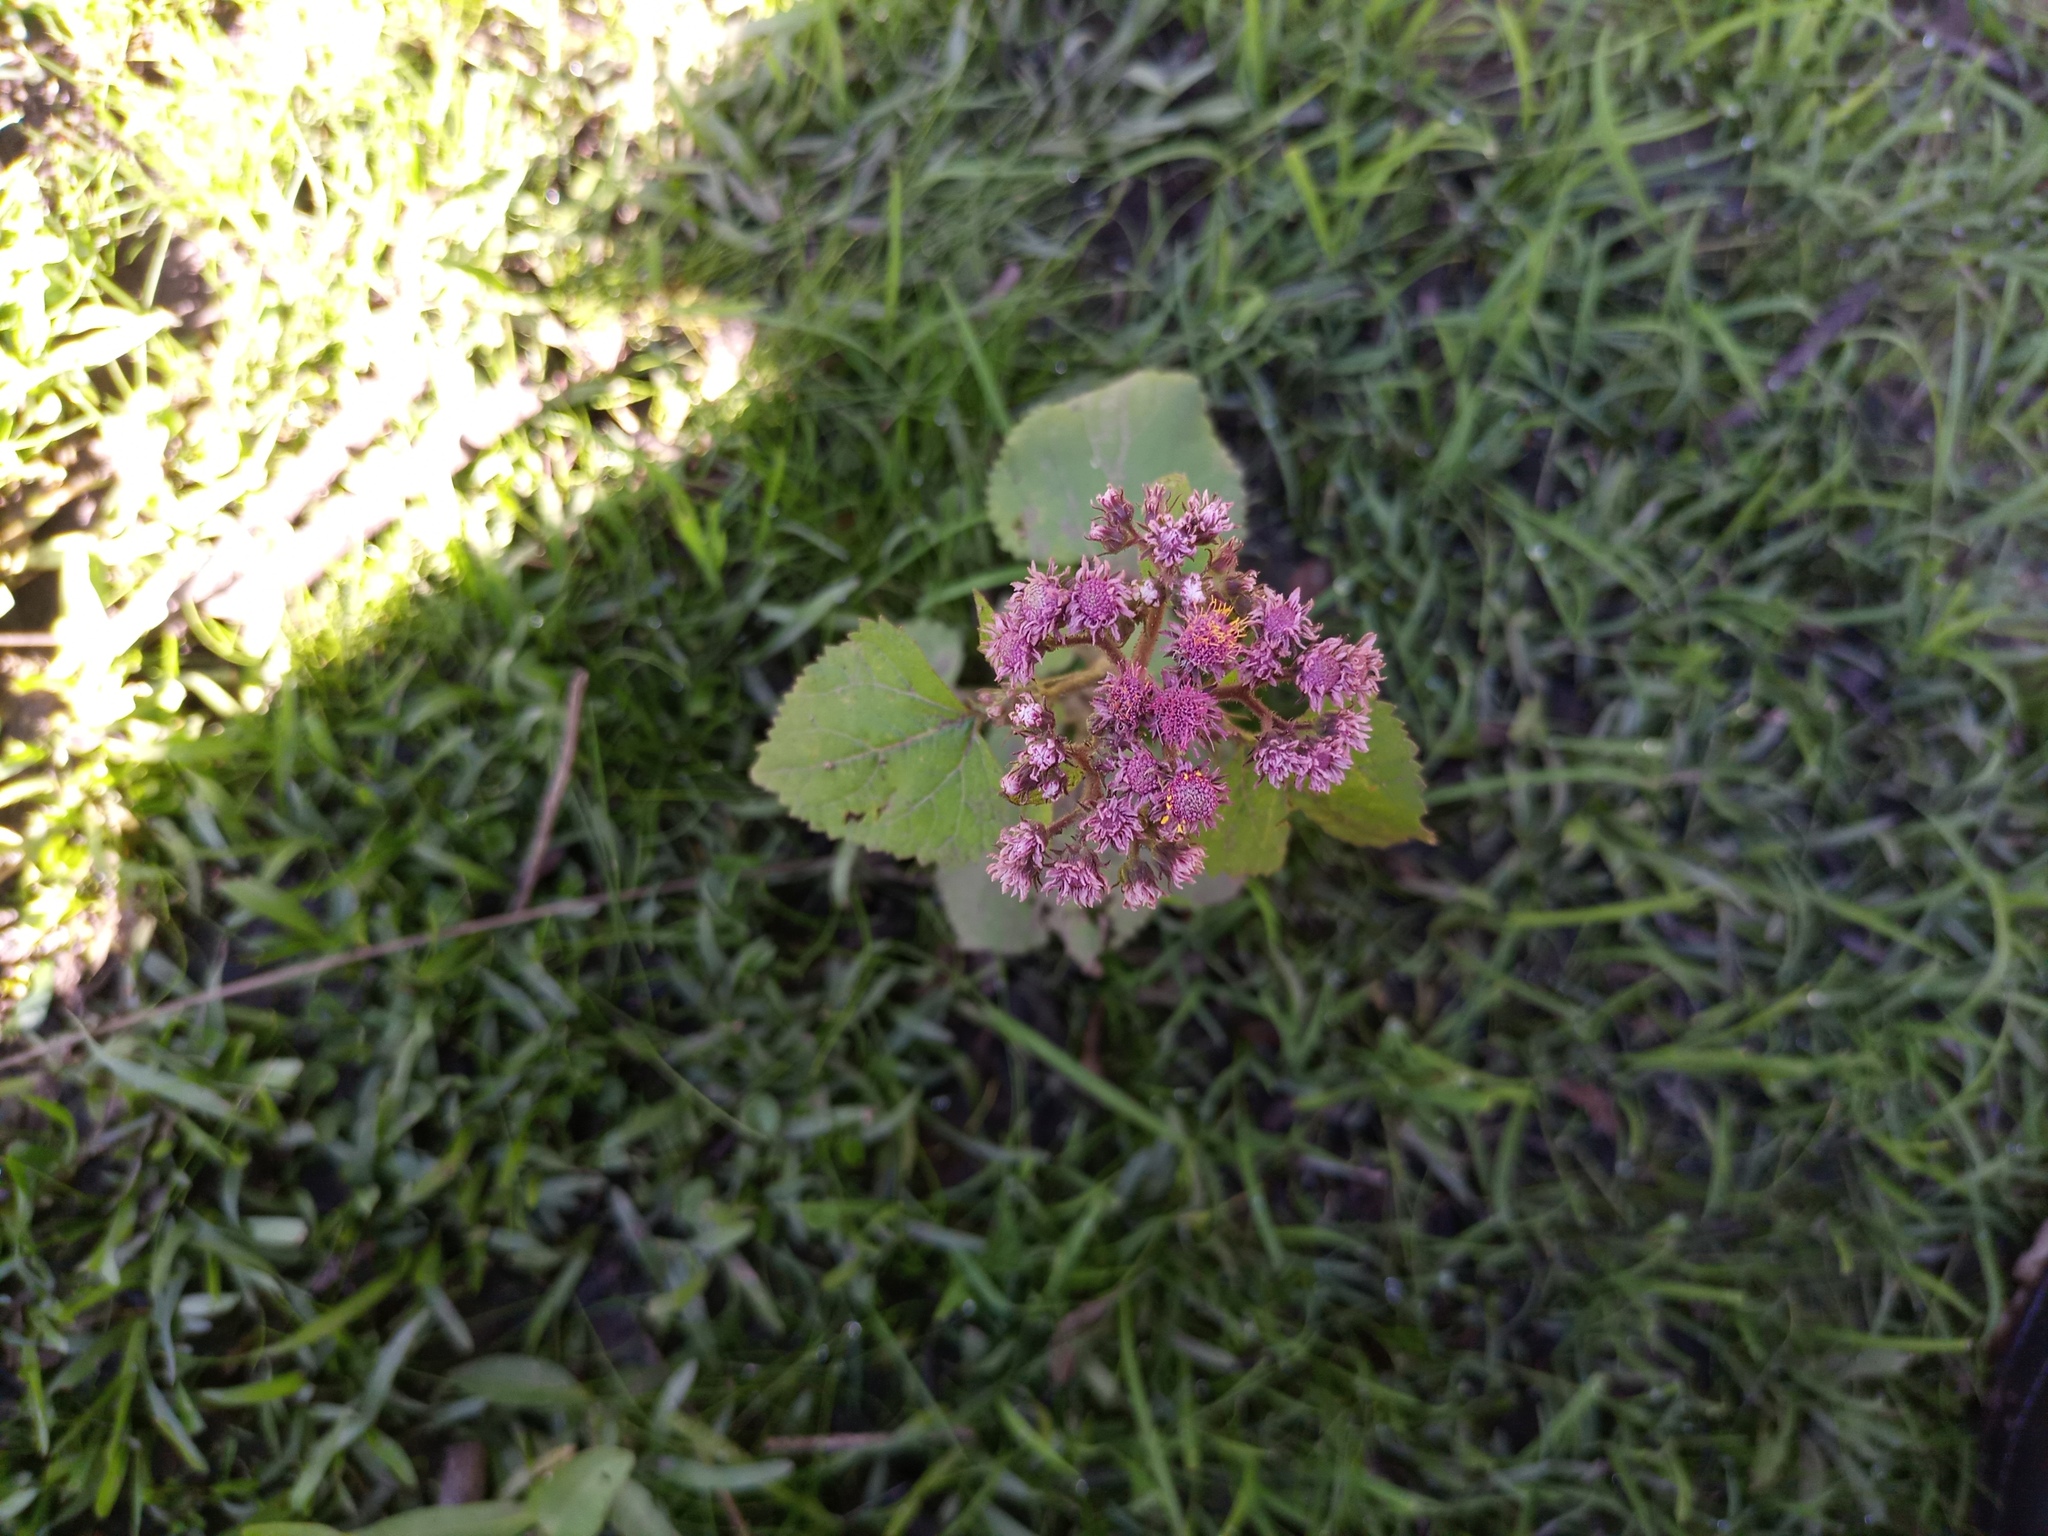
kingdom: Plantae
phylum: Tracheophyta
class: Magnoliopsida
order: Asterales
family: Asteraceae
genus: Urolepis
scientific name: Urolepis hecatantha
